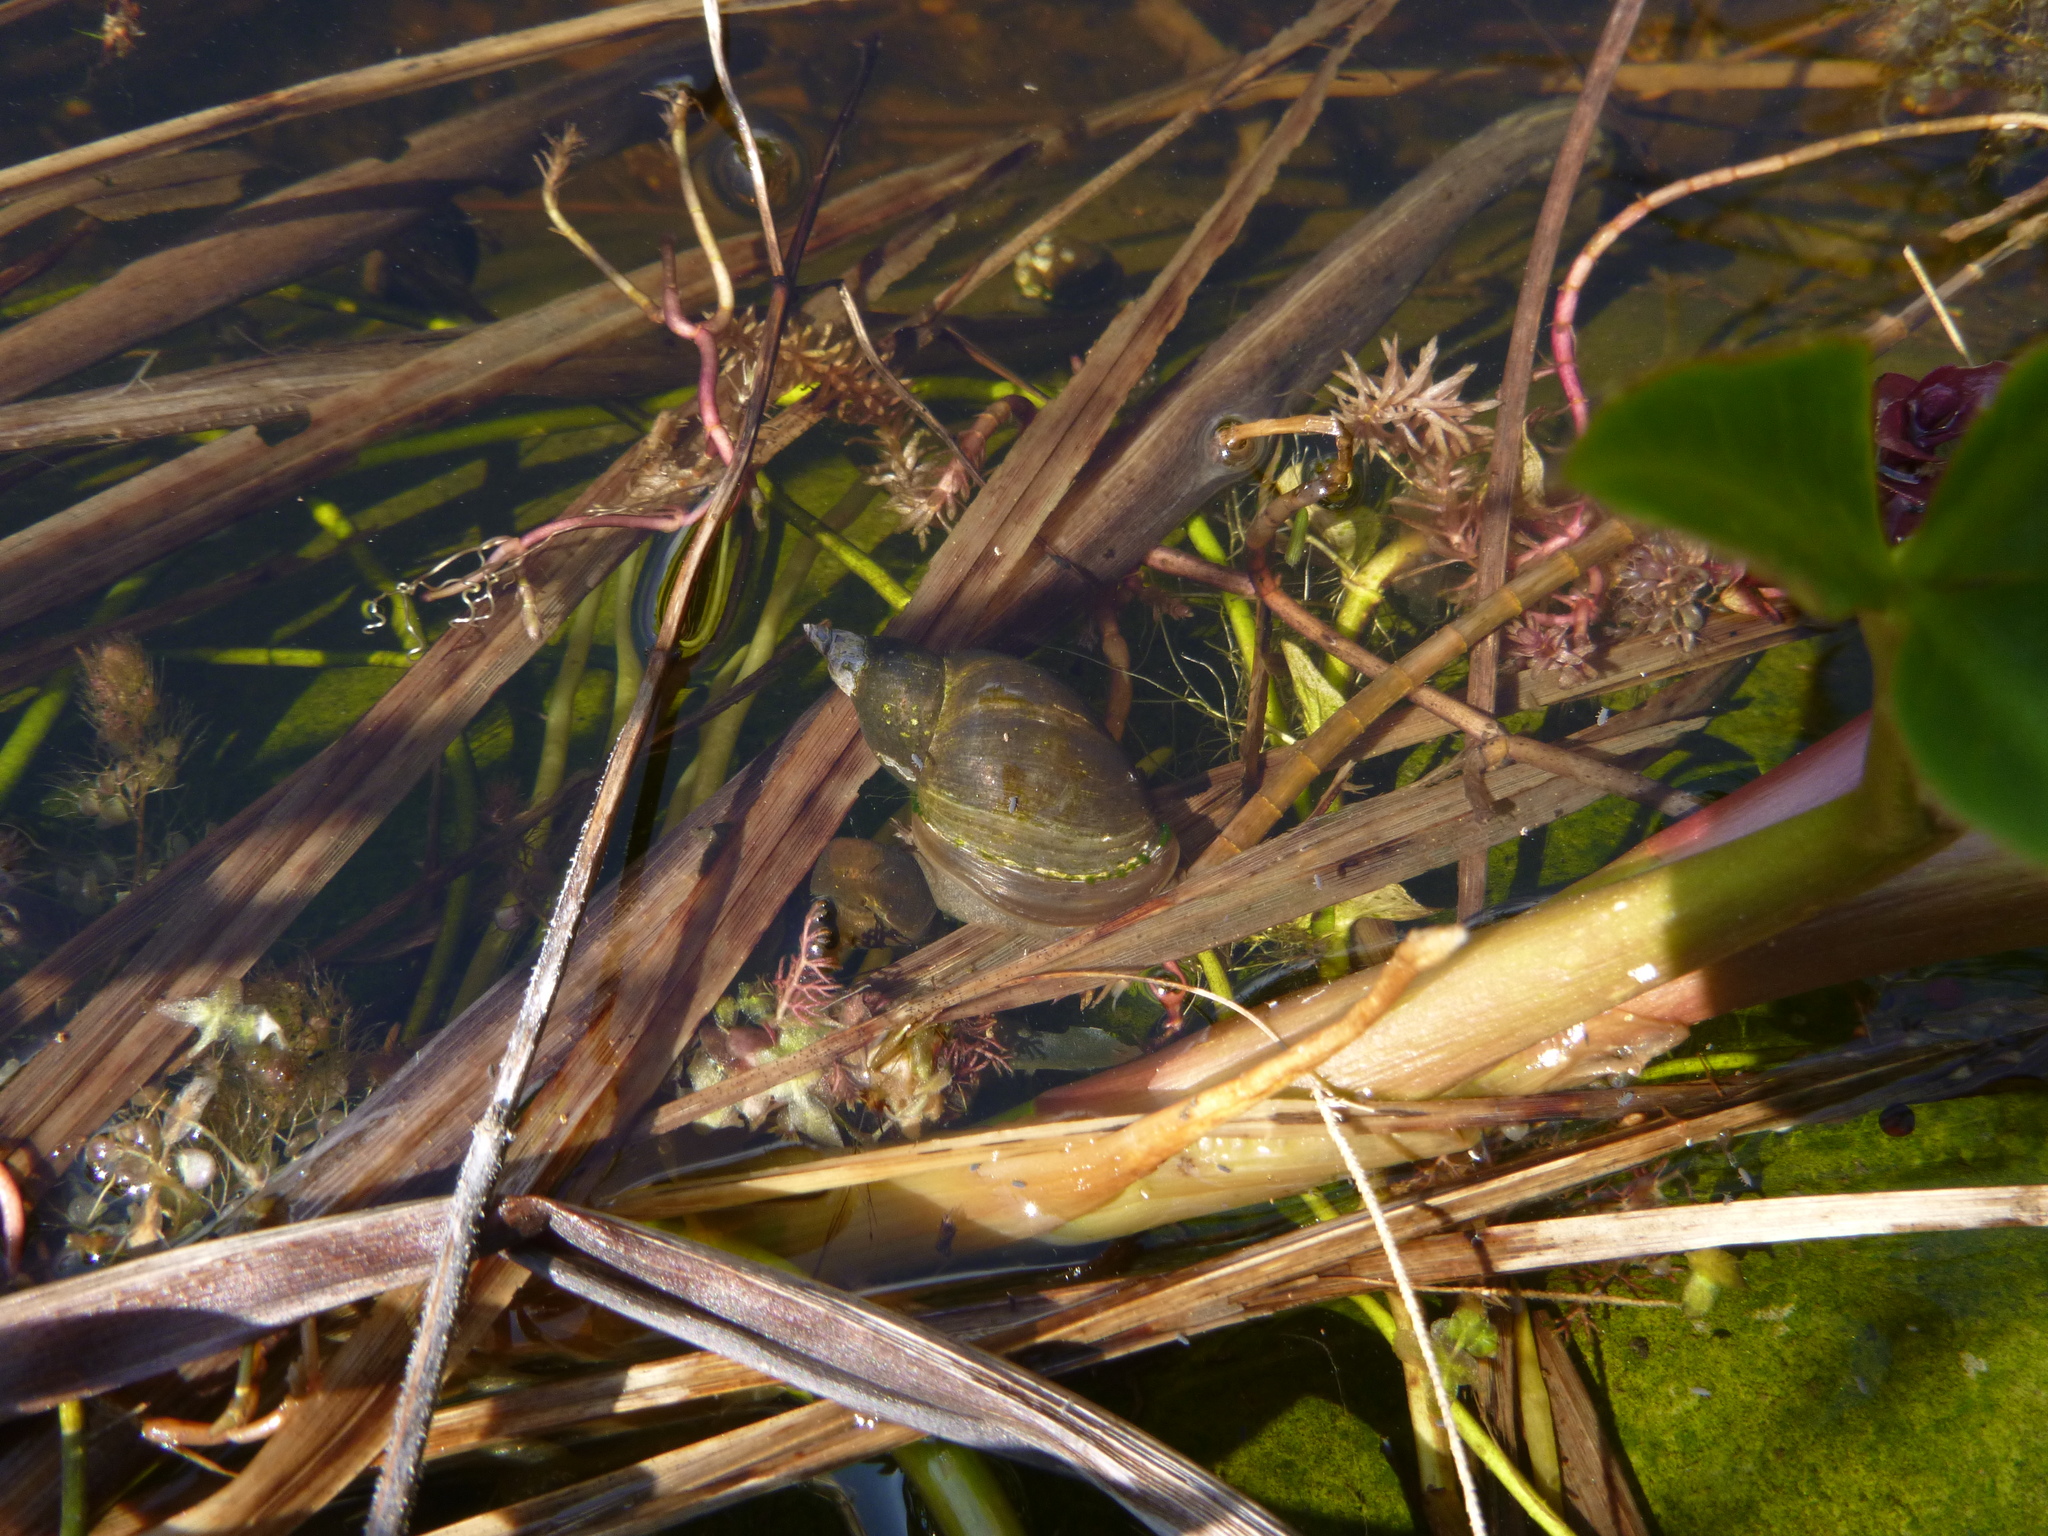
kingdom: Animalia
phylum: Mollusca
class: Gastropoda
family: Lymnaeidae
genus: Lymnaea
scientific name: Lymnaea stagnalis
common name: Great pond snail
